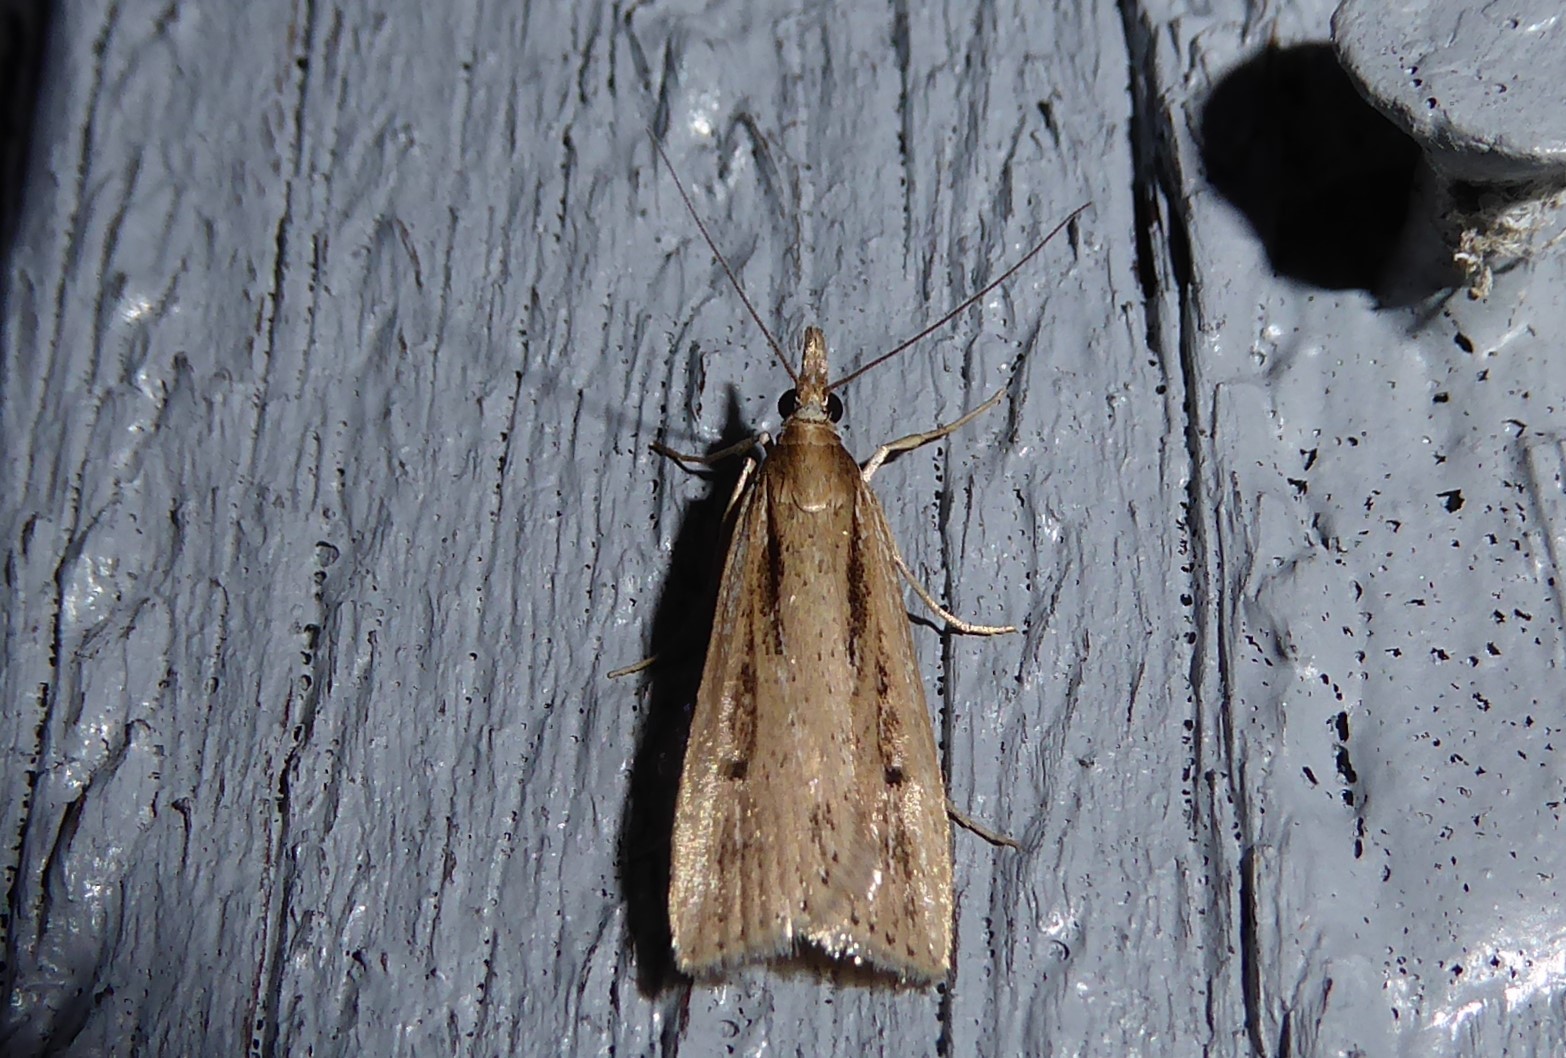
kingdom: Animalia
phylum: Arthropoda
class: Insecta
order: Lepidoptera
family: Crambidae
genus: Eudonia
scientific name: Eudonia sabulosella
